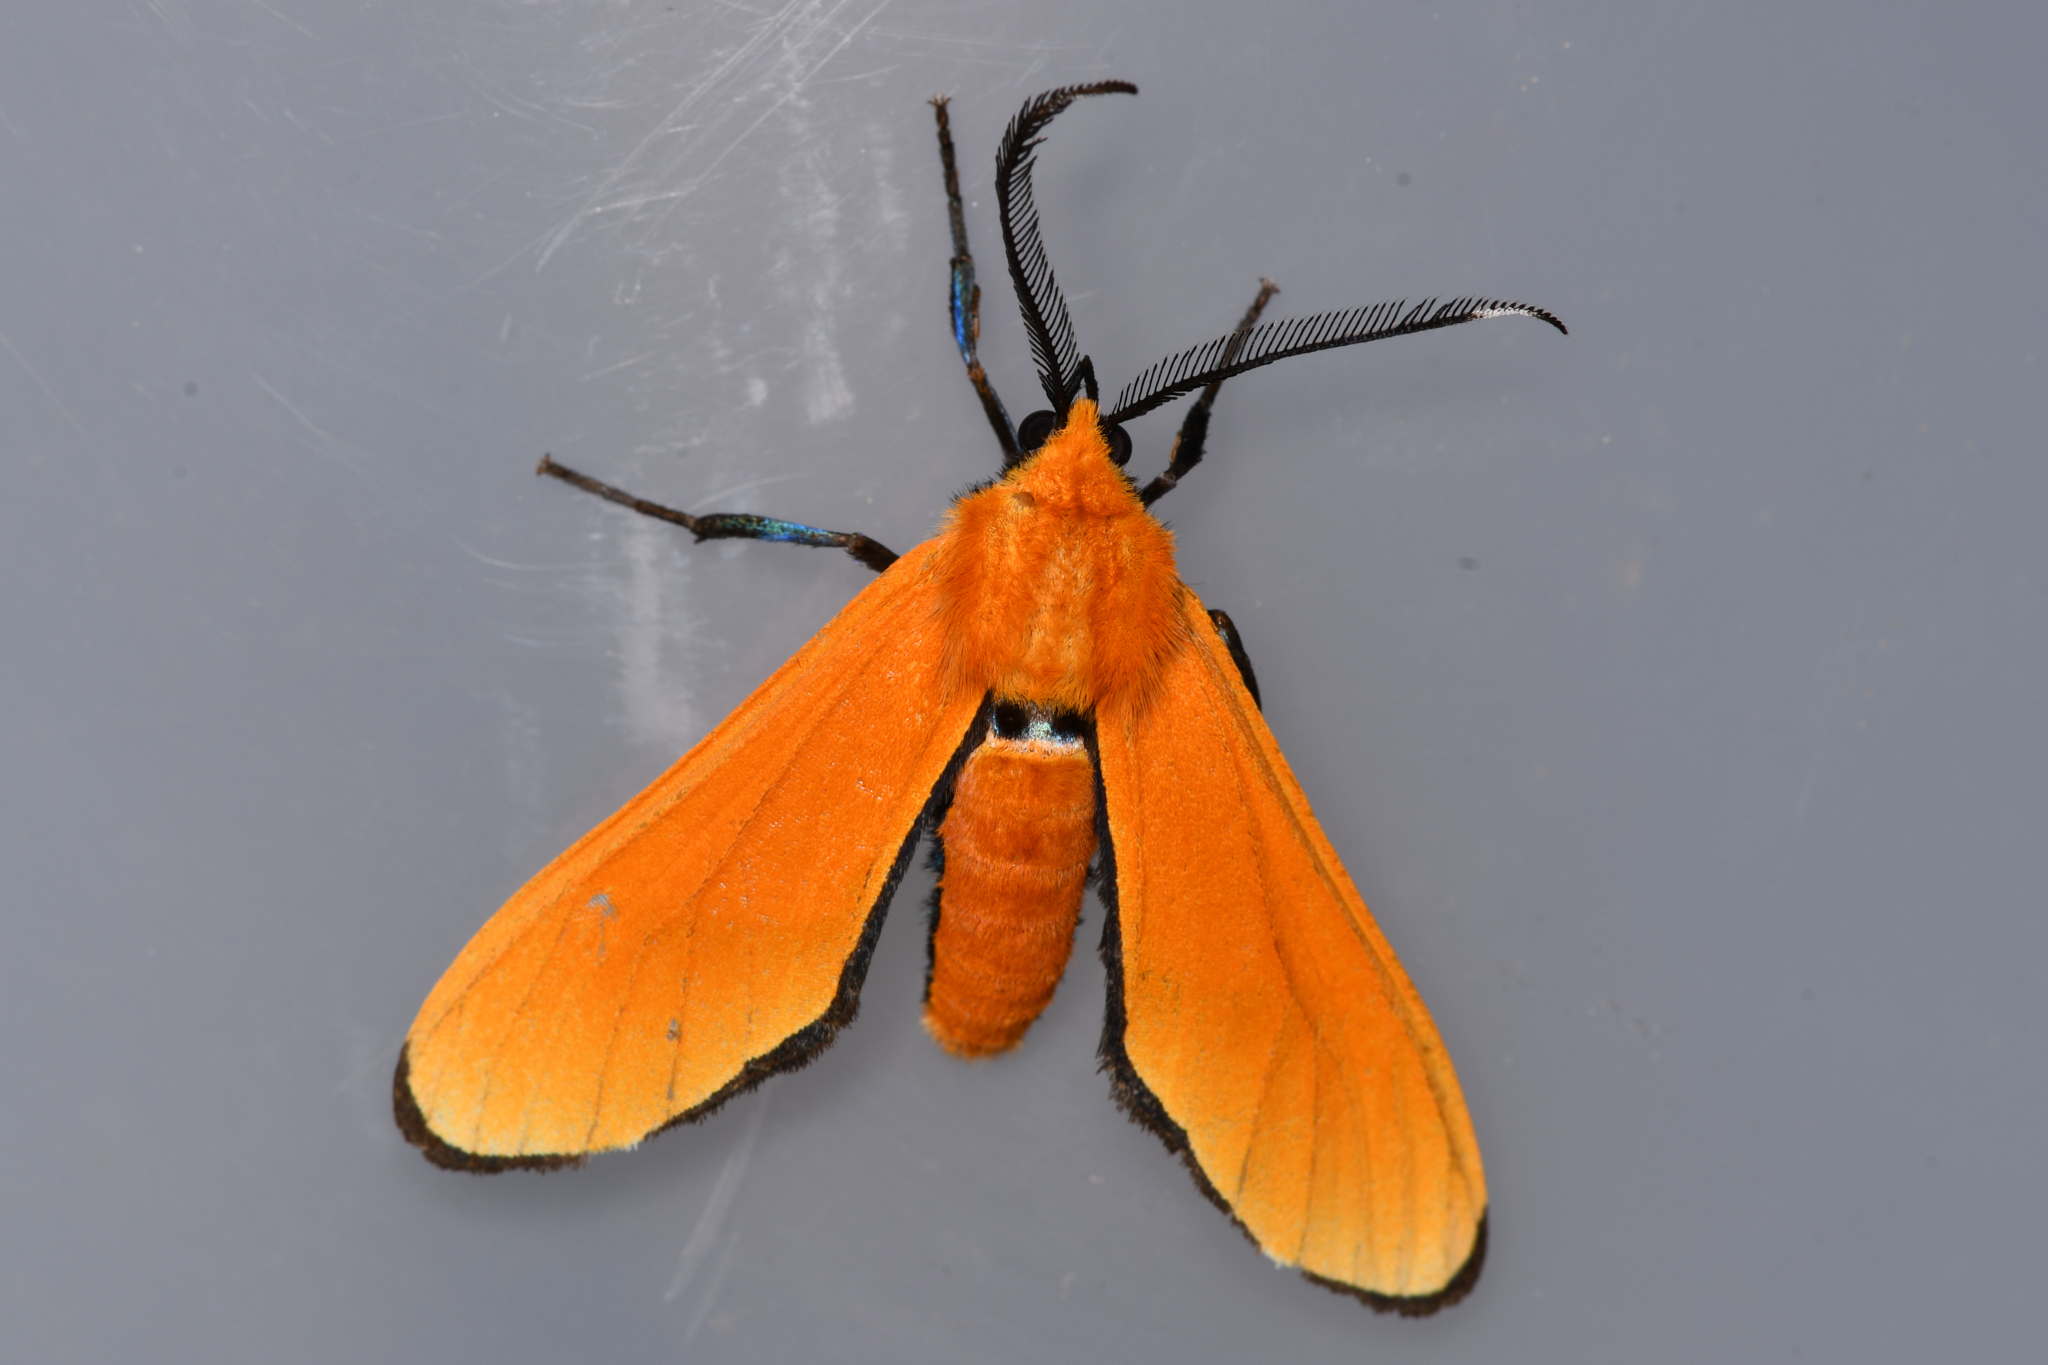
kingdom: Animalia
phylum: Arthropoda
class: Insecta
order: Lepidoptera
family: Erebidae
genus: Xanthomis
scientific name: Xanthomis grandis
